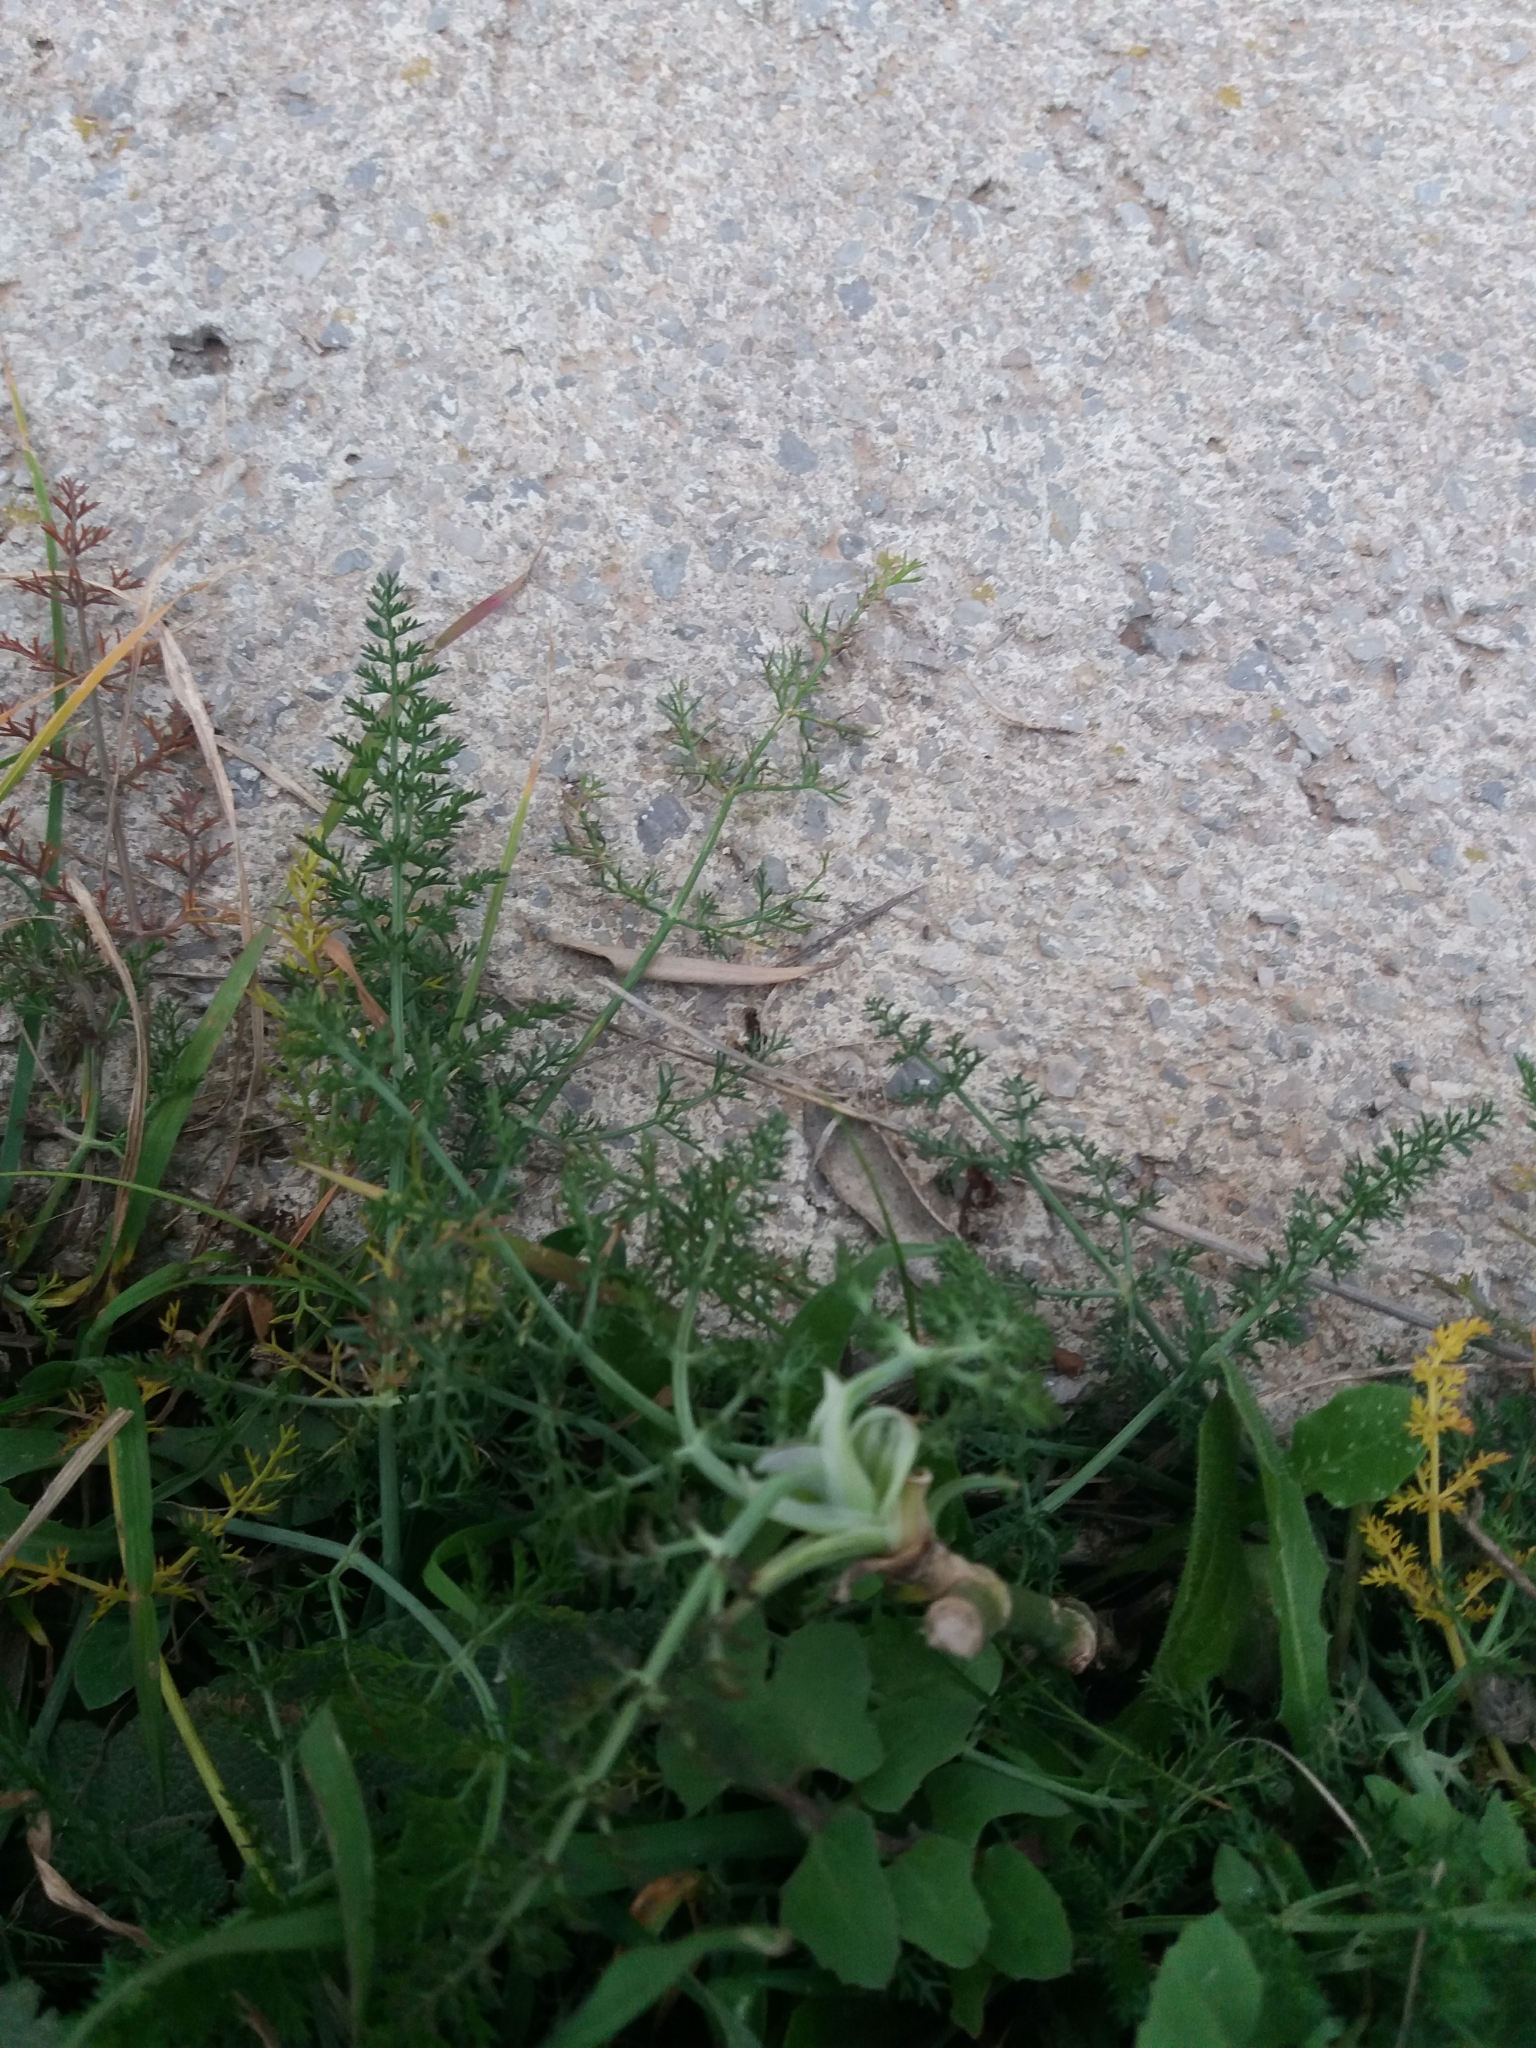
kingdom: Plantae
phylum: Tracheophyta
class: Magnoliopsida
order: Apiales
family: Apiaceae
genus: Foeniculum
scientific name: Foeniculum vulgare
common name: Fennel
